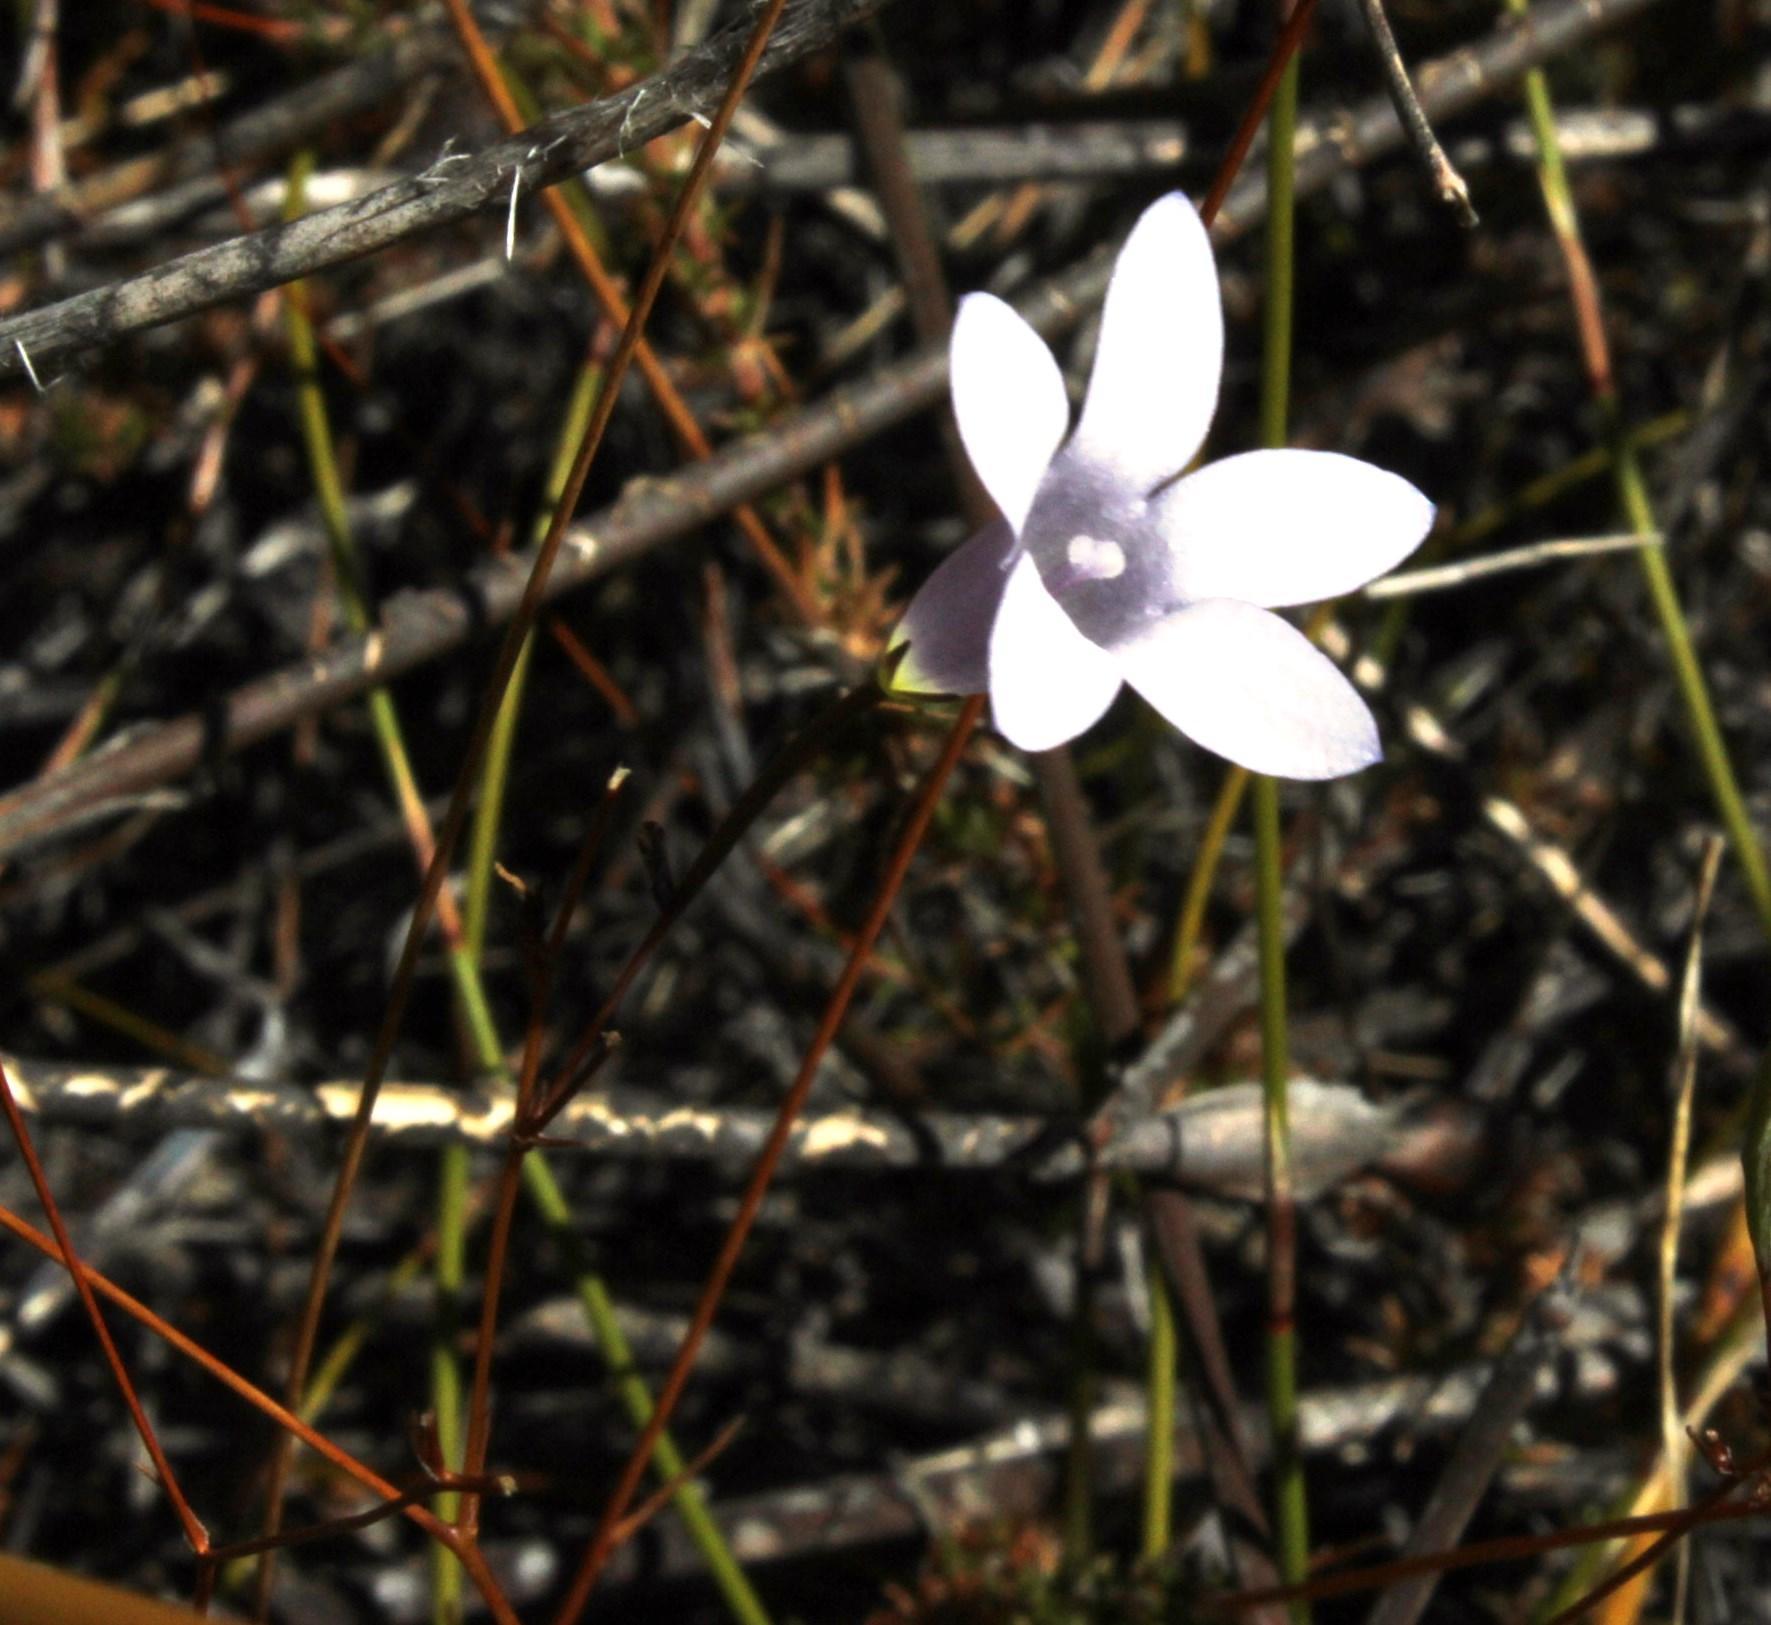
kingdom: Plantae
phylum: Tracheophyta
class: Magnoliopsida
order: Asterales
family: Campanulaceae
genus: Prismatocarpus
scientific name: Prismatocarpus fruticosus
